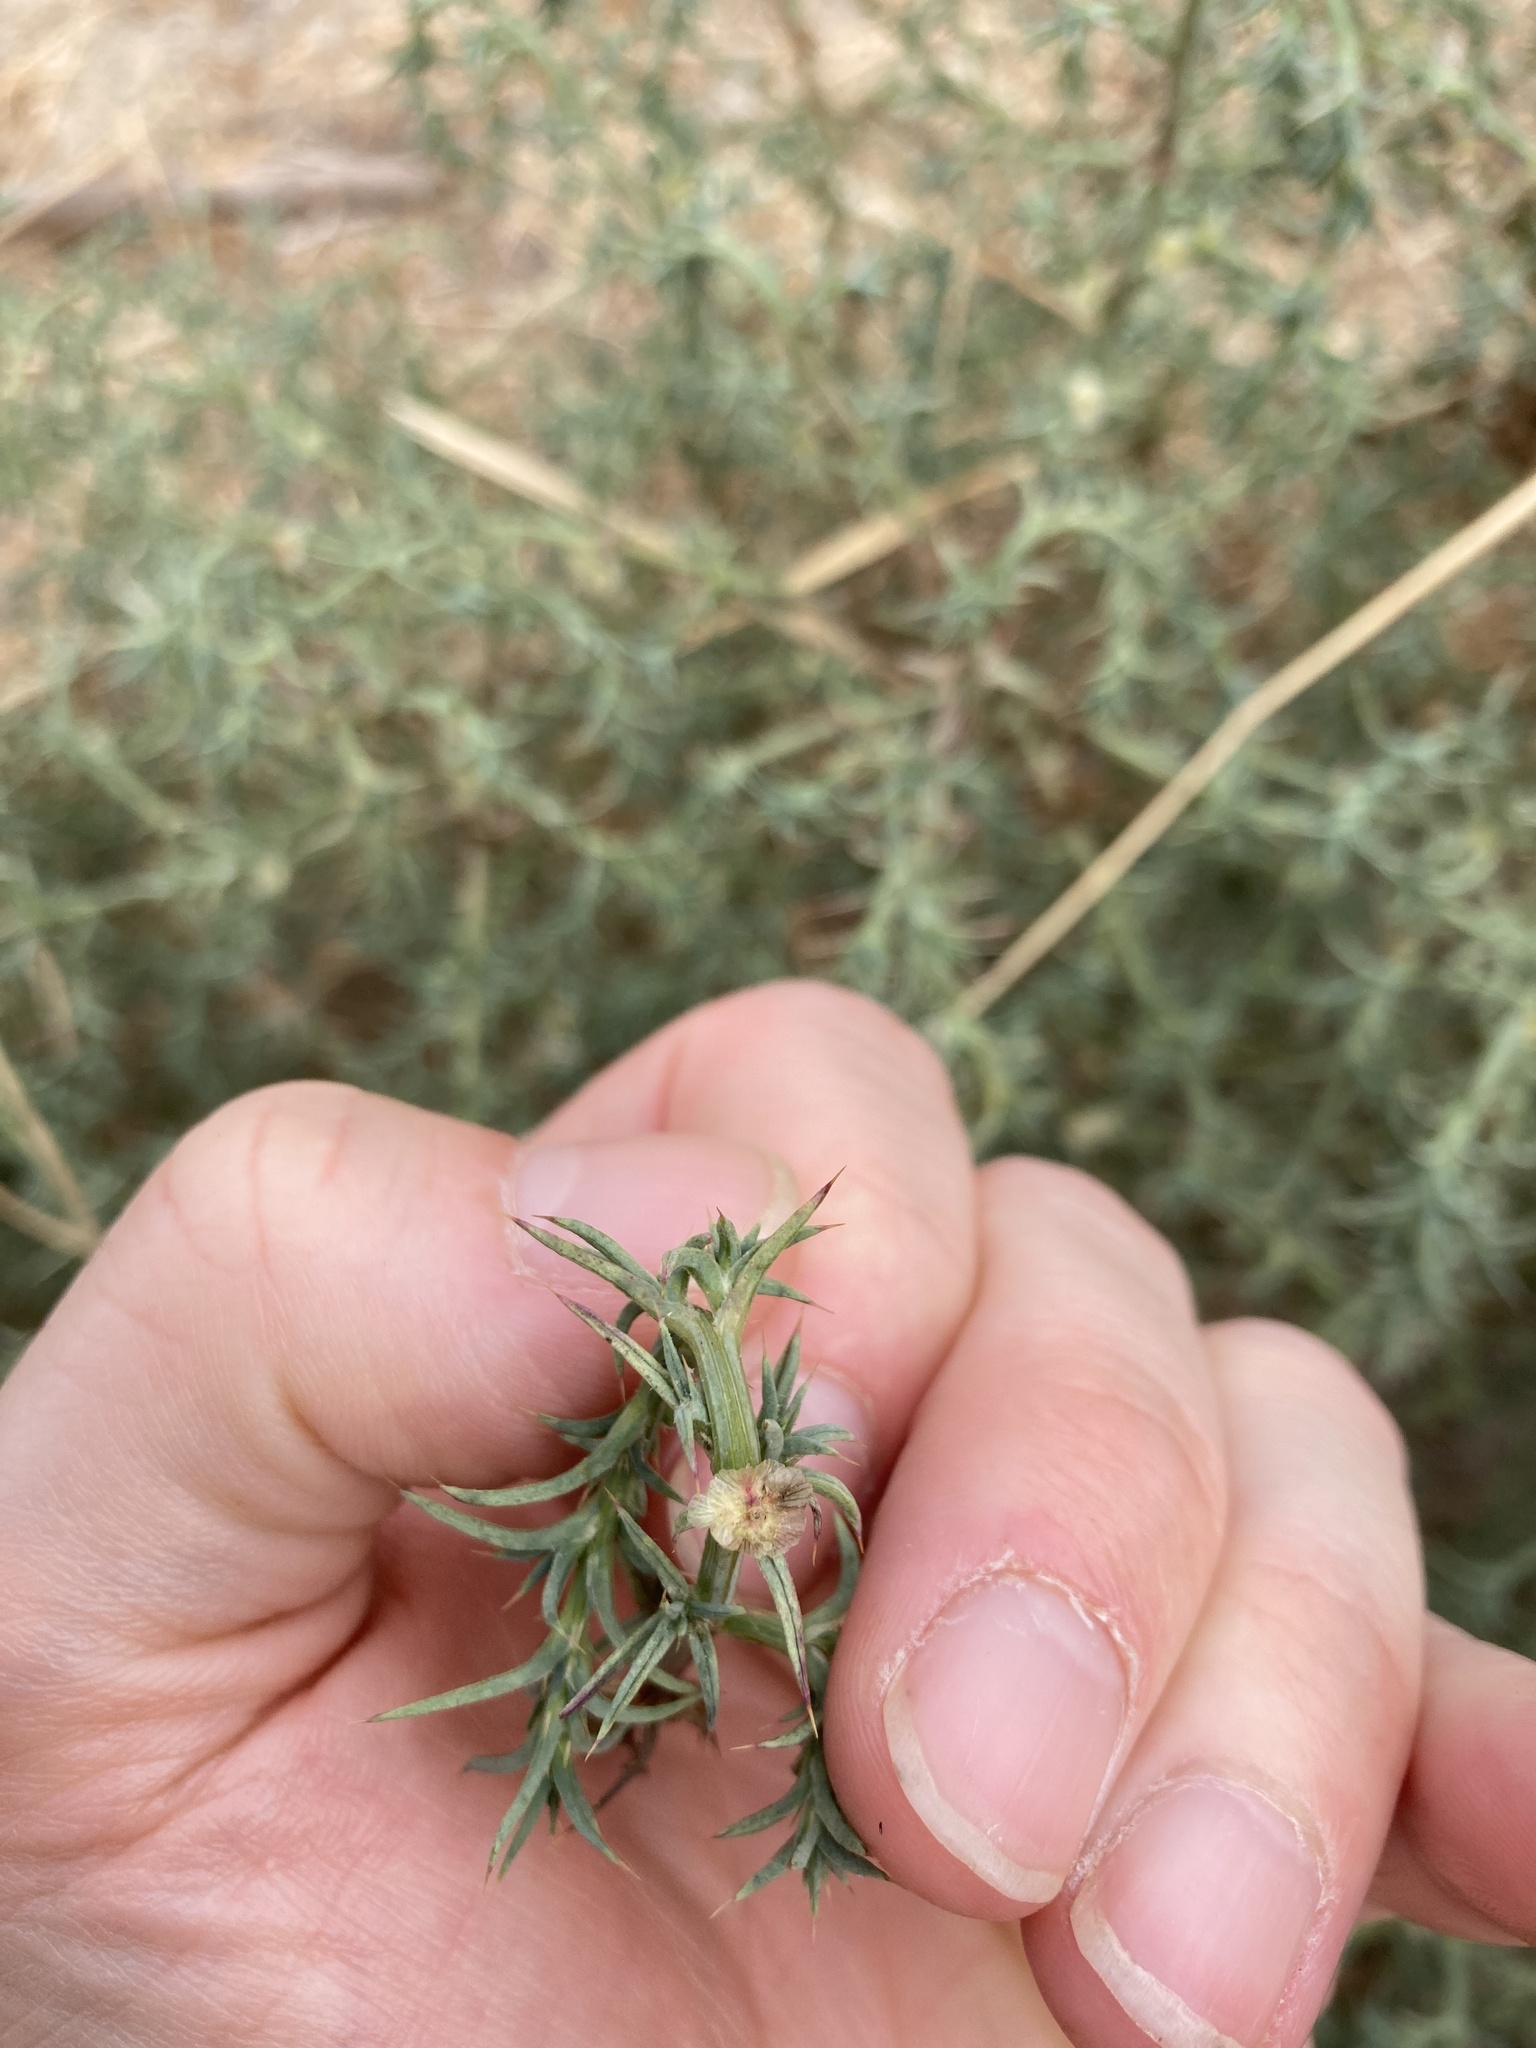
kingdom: Plantae
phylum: Tracheophyta
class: Magnoliopsida
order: Caryophyllales
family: Amaranthaceae
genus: Salsola
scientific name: Salsola australis
